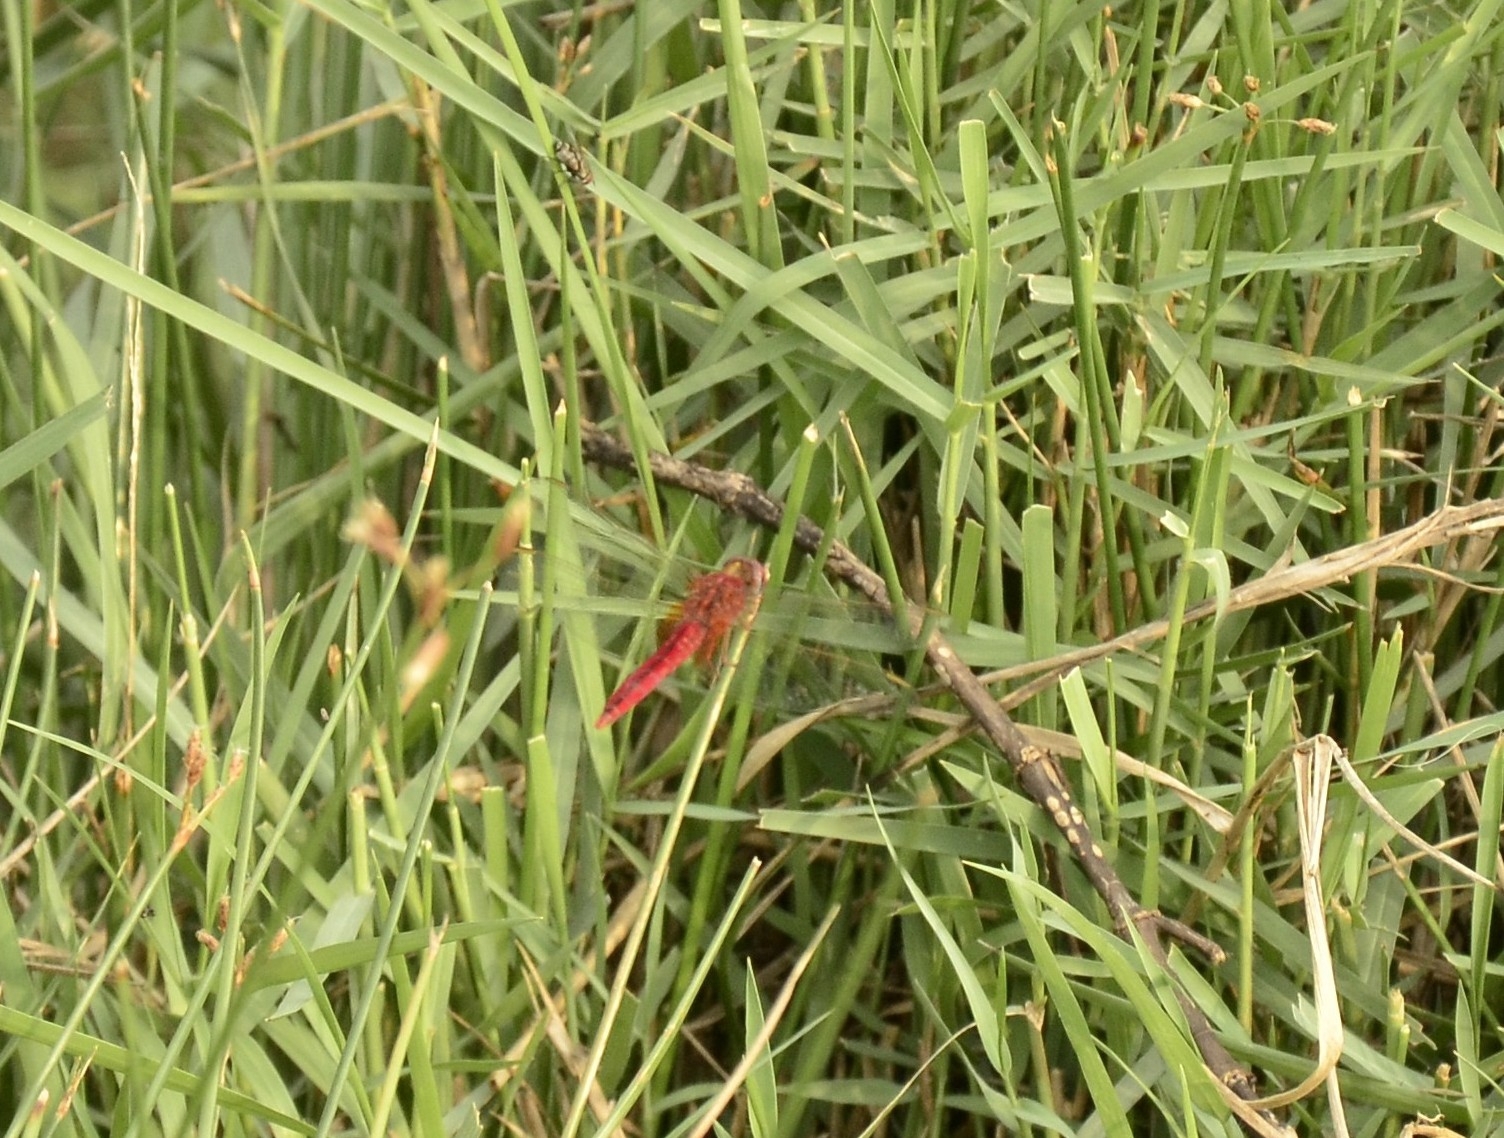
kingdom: Animalia
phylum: Arthropoda
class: Insecta
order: Odonata
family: Libellulidae
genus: Crocothemis
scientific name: Crocothemis servilia
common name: Scarlet skimmer
